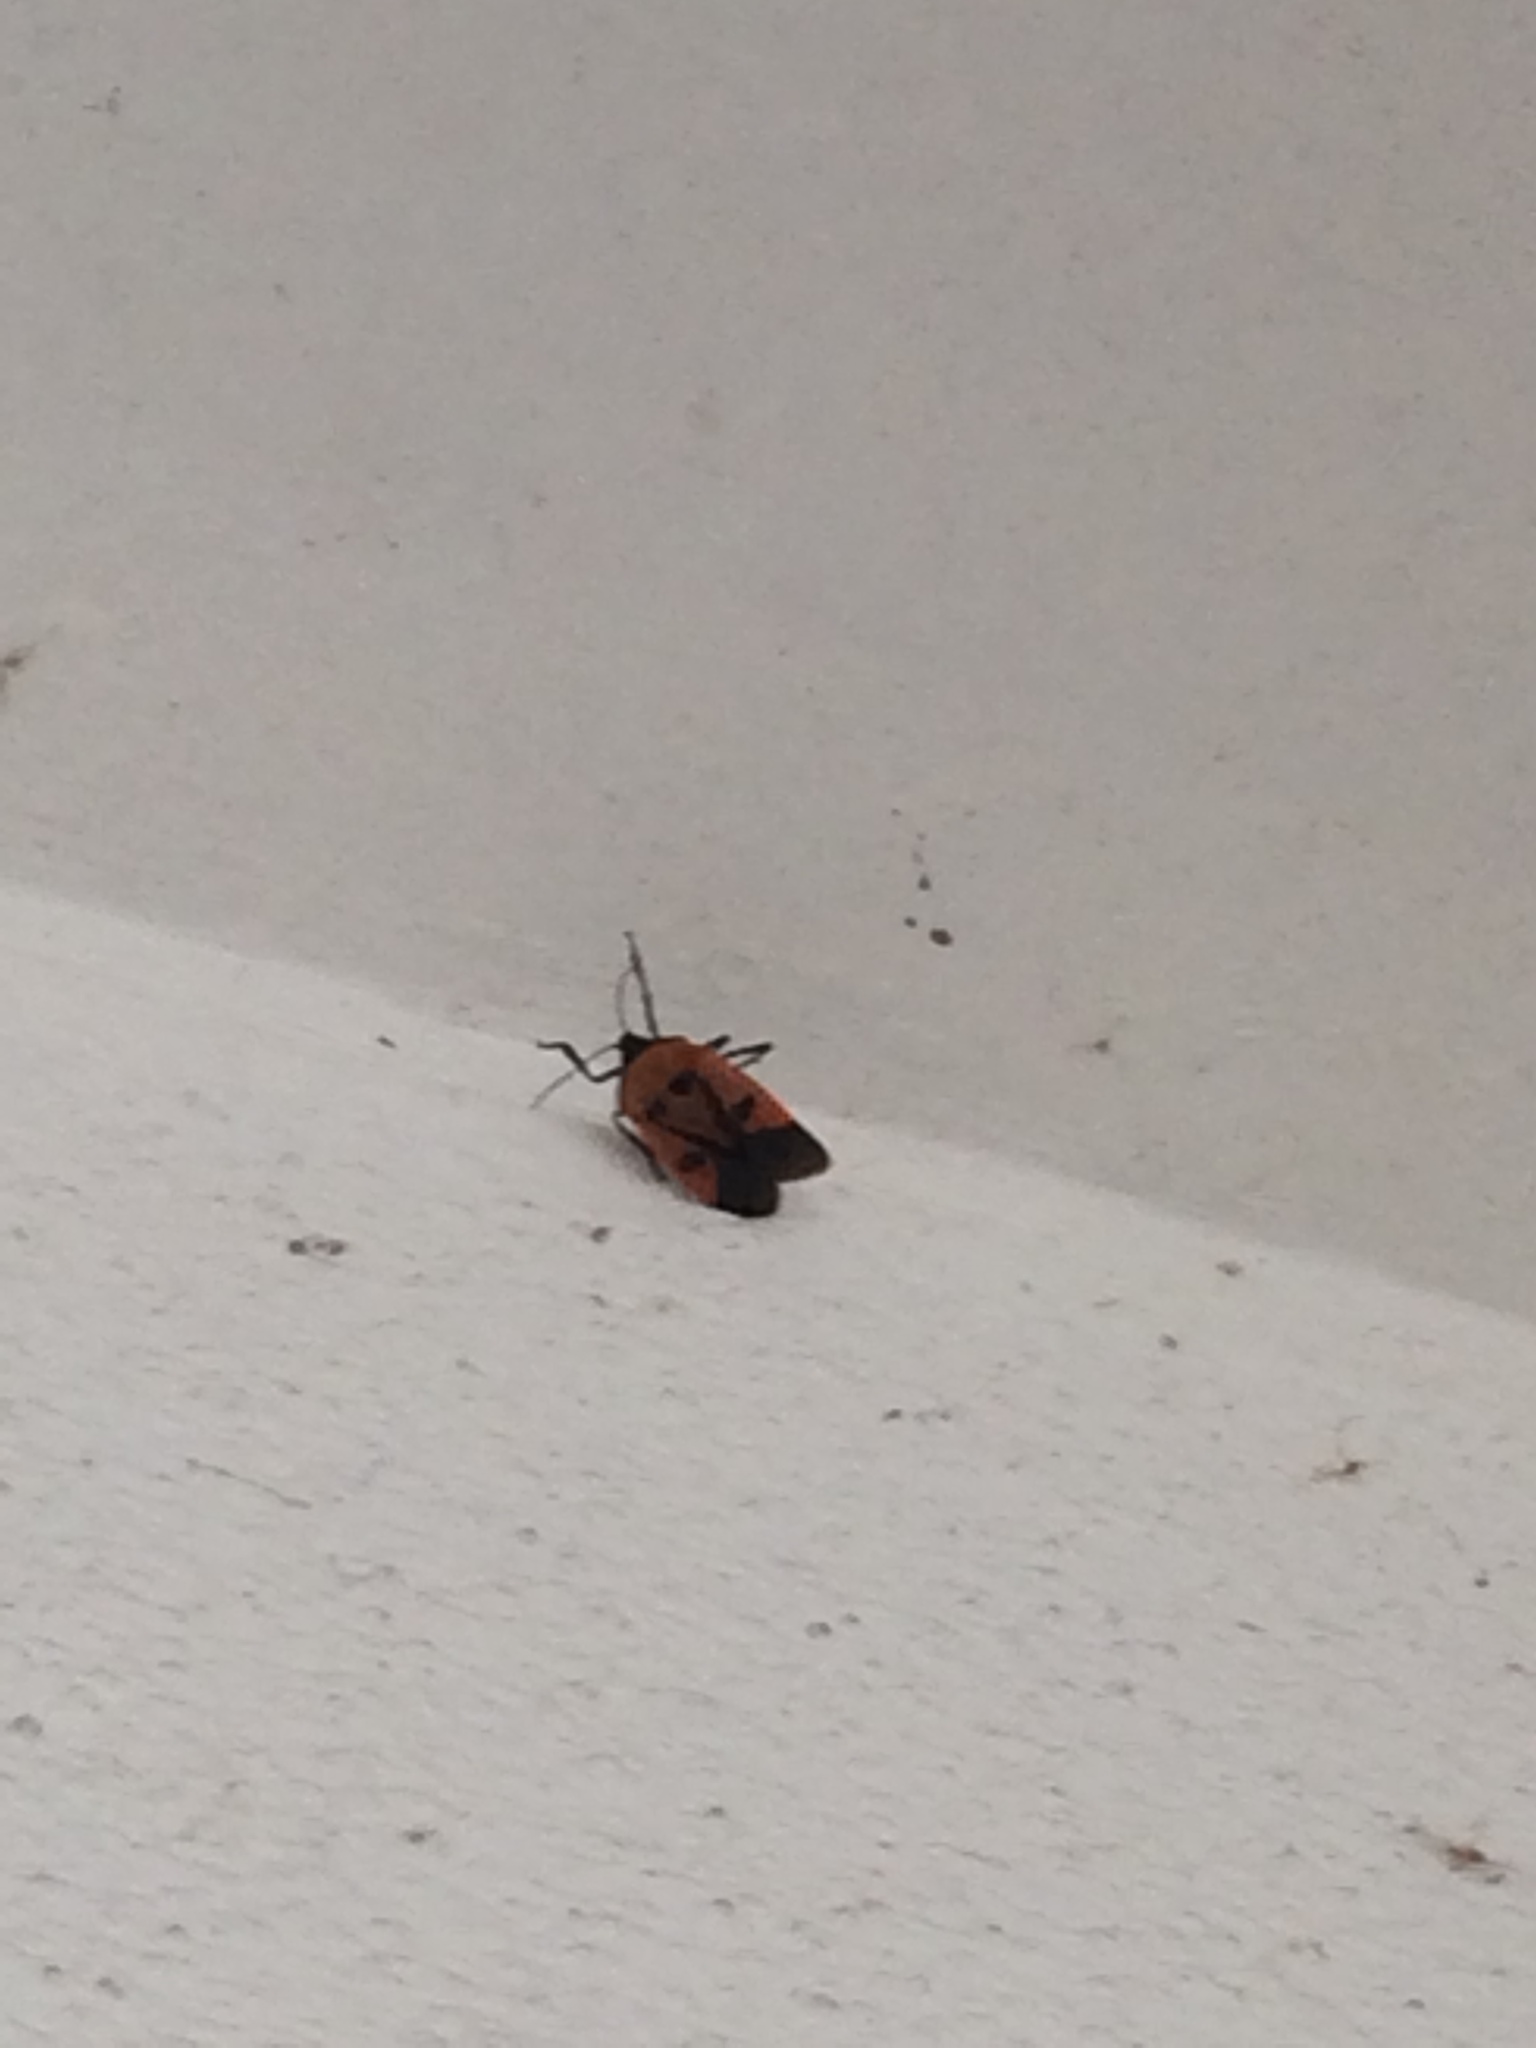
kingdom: Animalia
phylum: Arthropoda
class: Insecta
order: Hemiptera
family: Pentatomidae
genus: Catacanthus
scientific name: Catacanthus incarnatus
